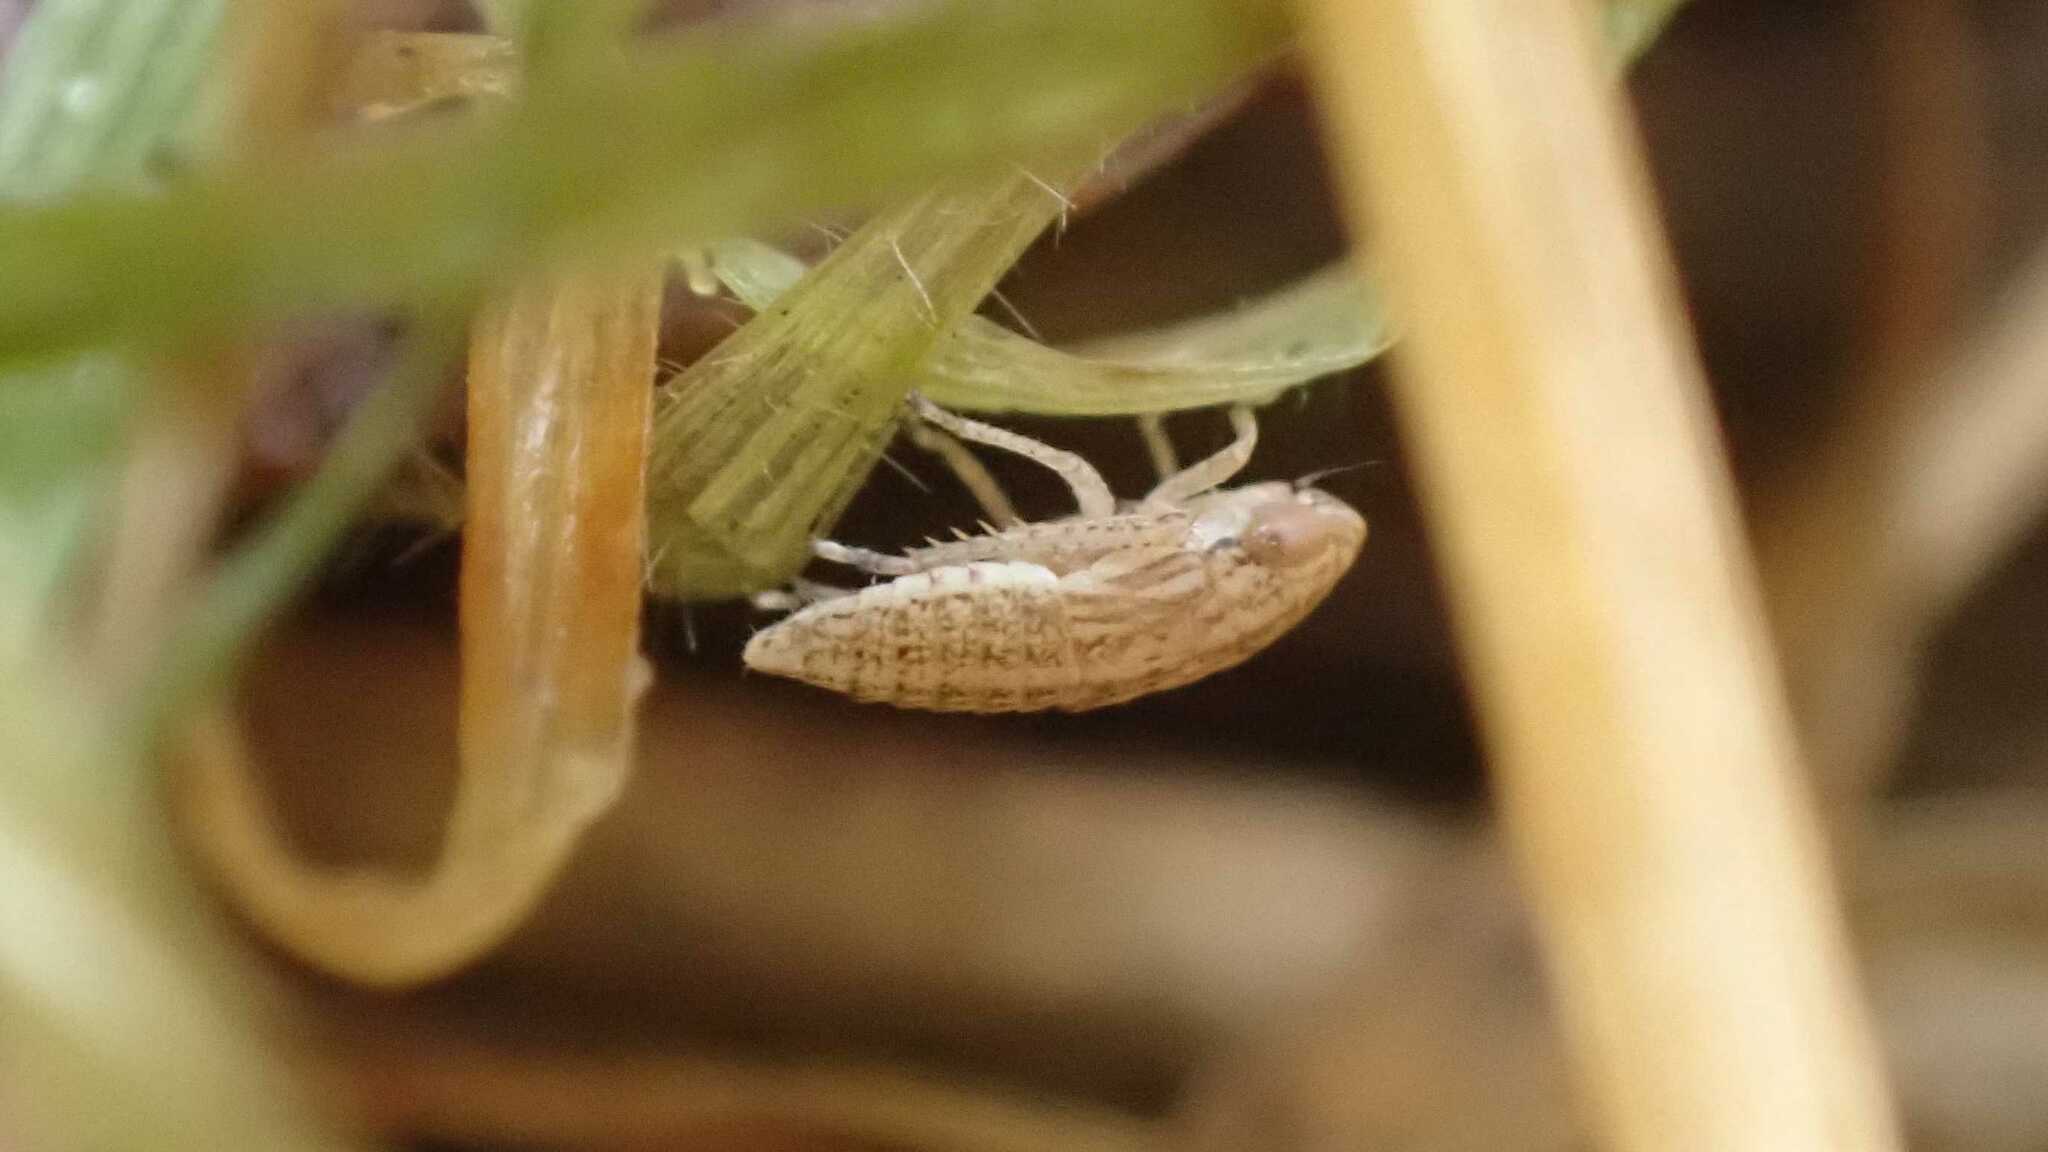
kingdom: Animalia
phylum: Arthropoda
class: Insecta
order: Hemiptera
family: Cicadellidae
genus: Speudotettix
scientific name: Speudotettix subfusculus
